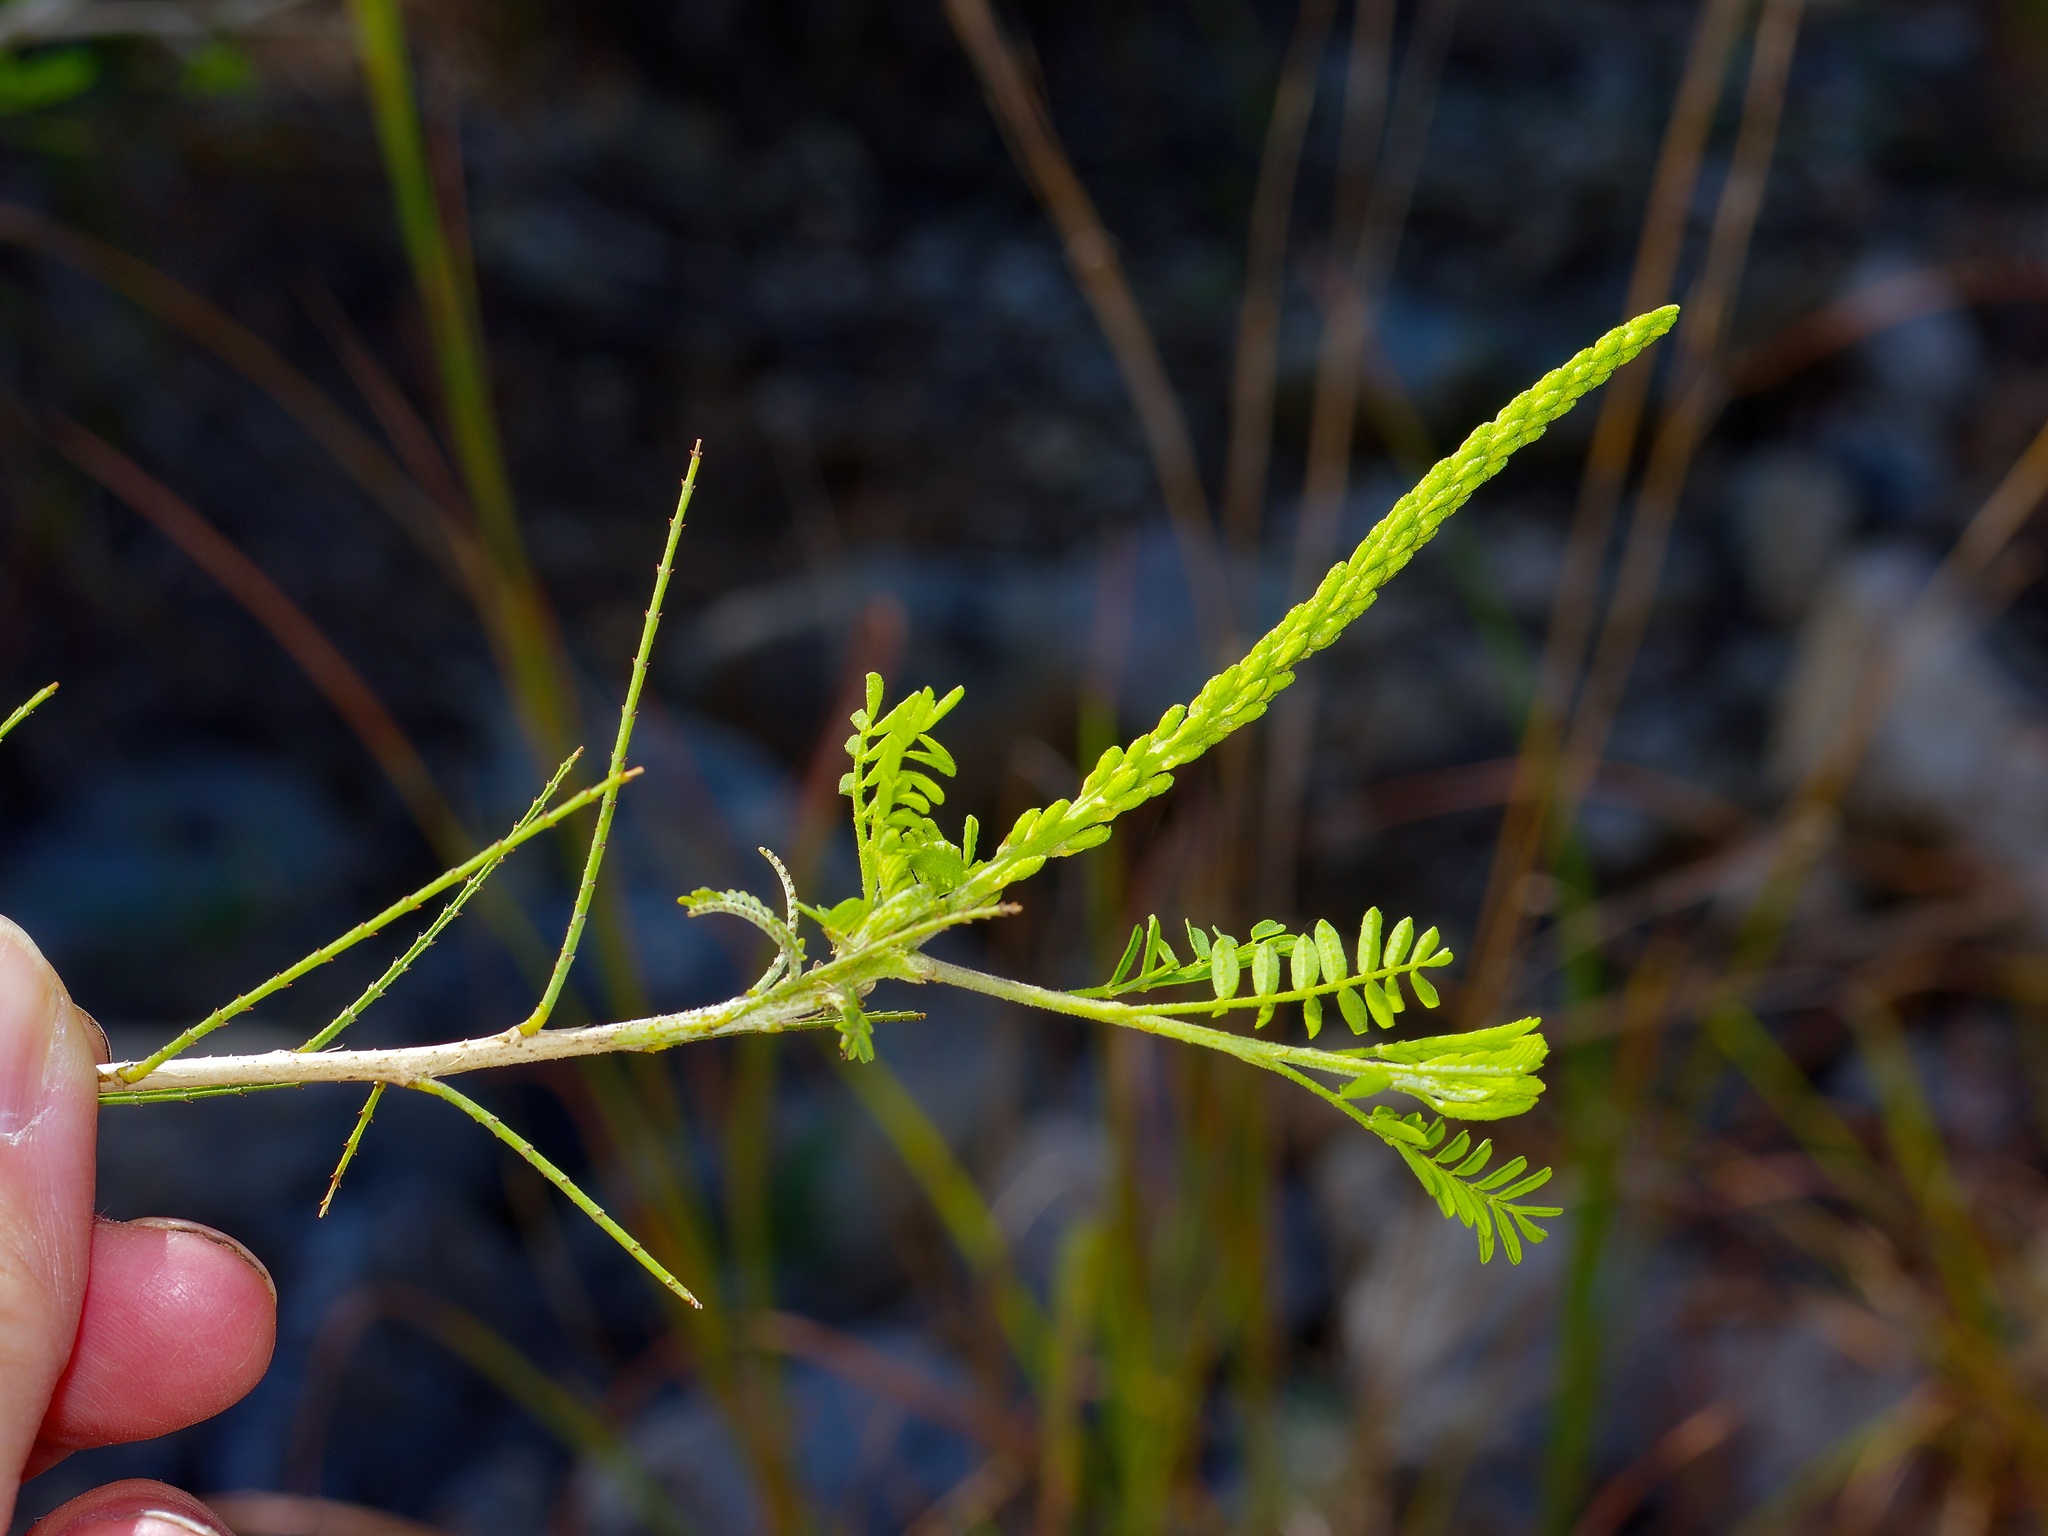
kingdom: Plantae
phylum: Tracheophyta
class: Magnoliopsida
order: Fabales
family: Fabaceae
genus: Eysenhardtia
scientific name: Eysenhardtia texana
